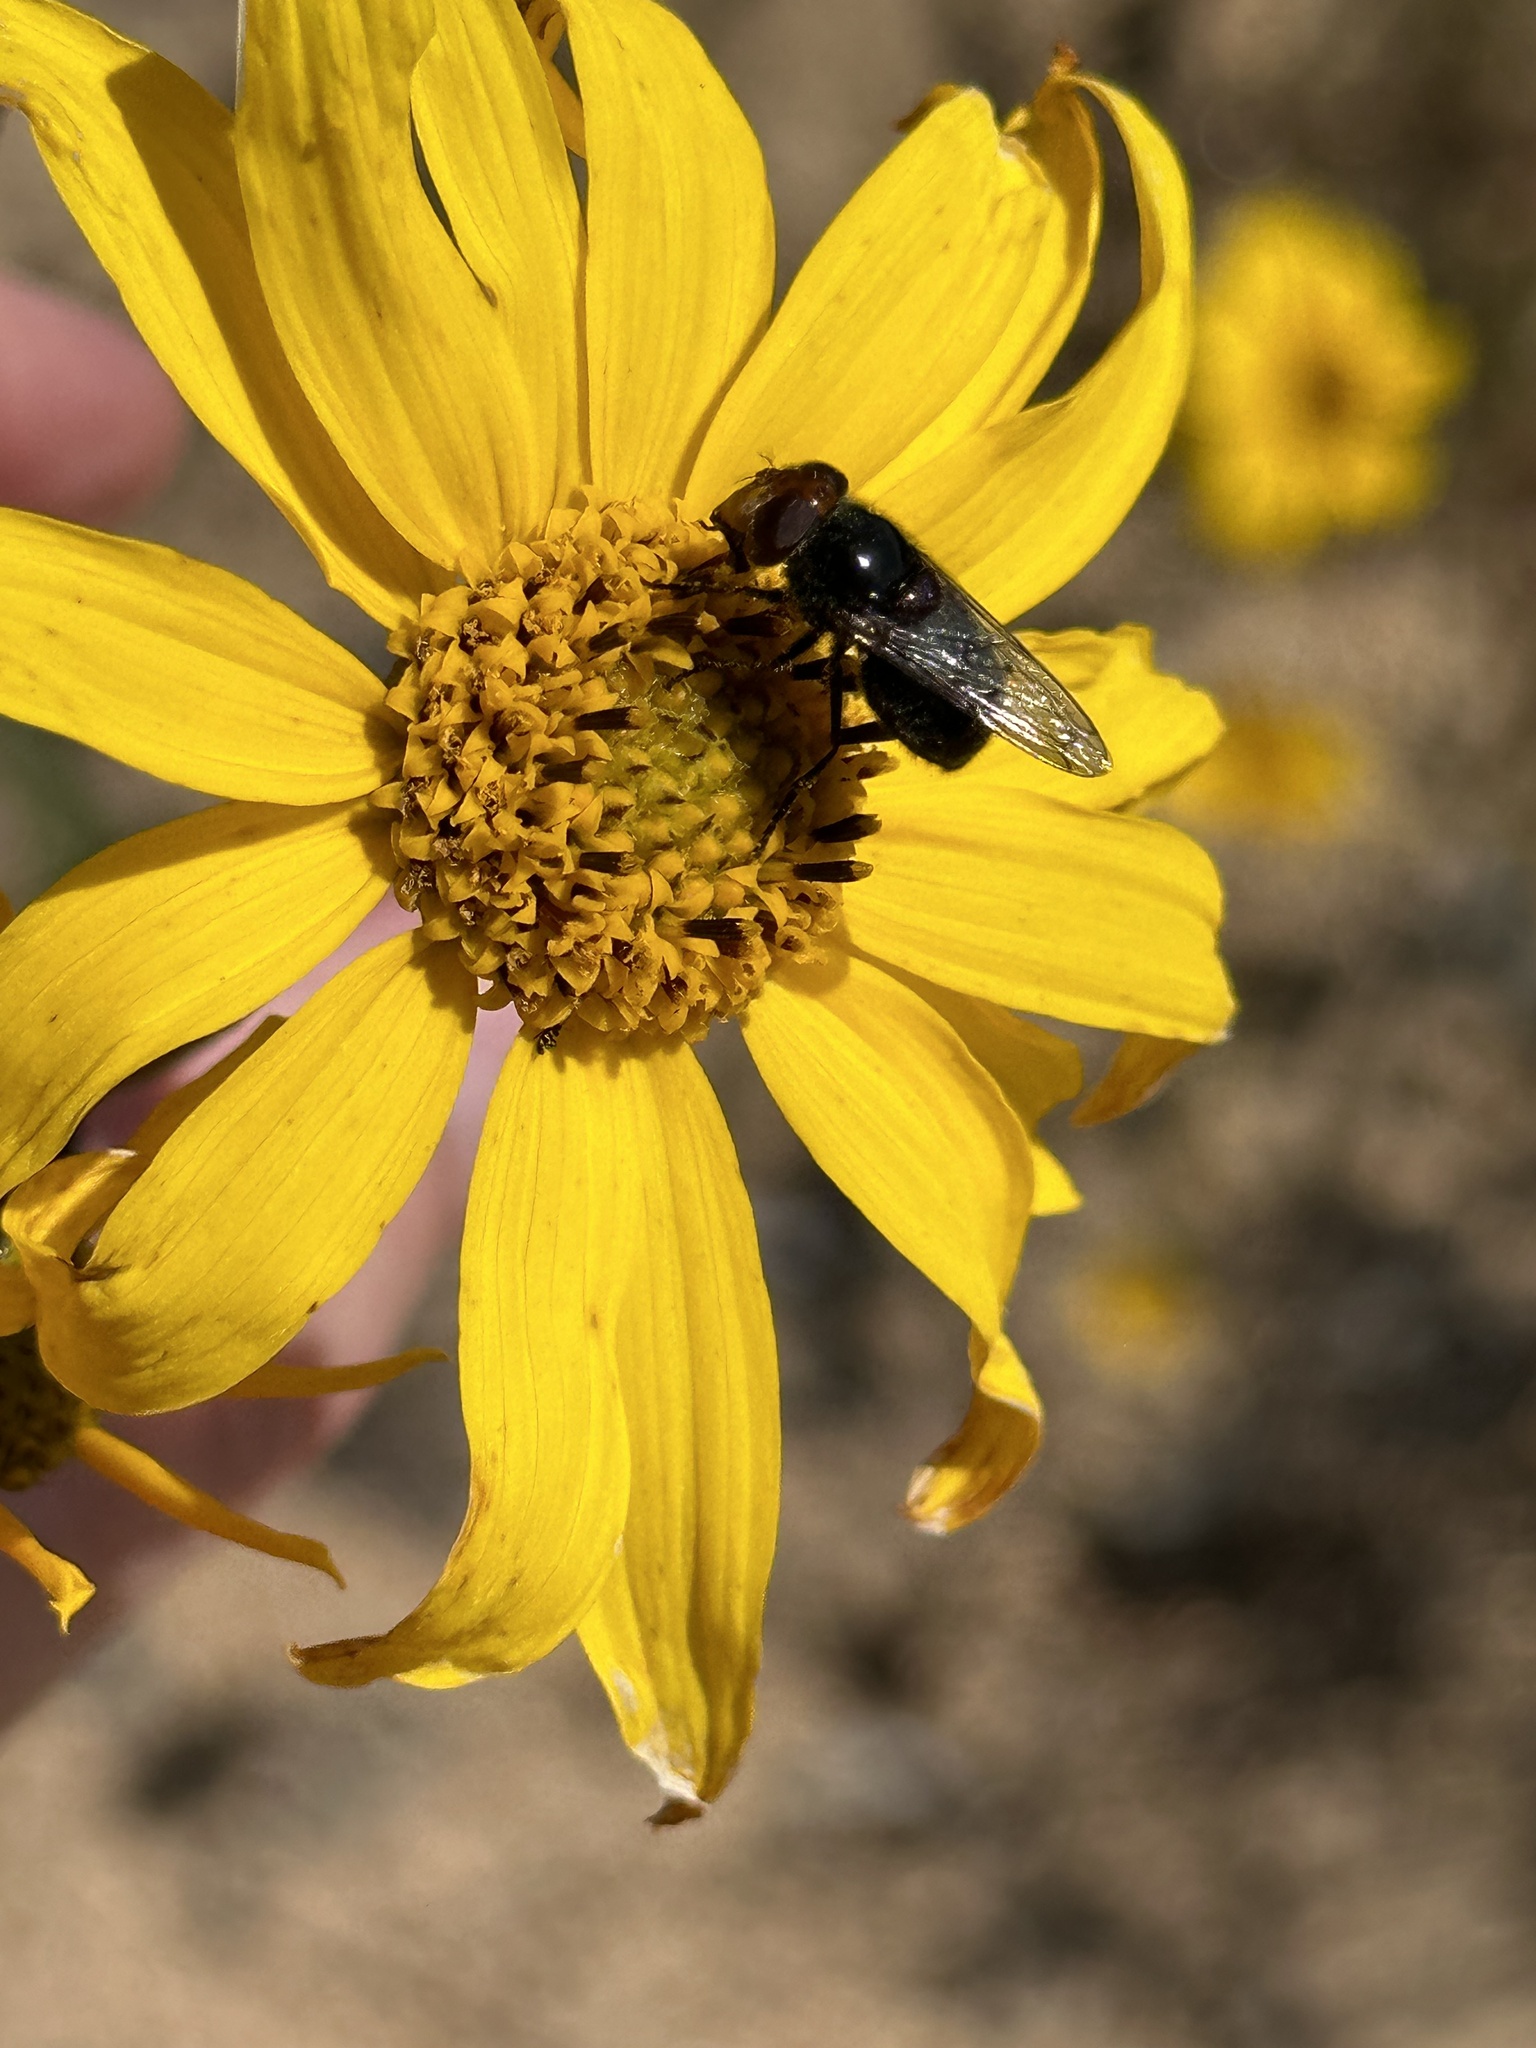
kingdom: Animalia
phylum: Arthropoda
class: Insecta
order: Diptera
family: Syrphidae
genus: Copestylum
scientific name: Copestylum victoria
